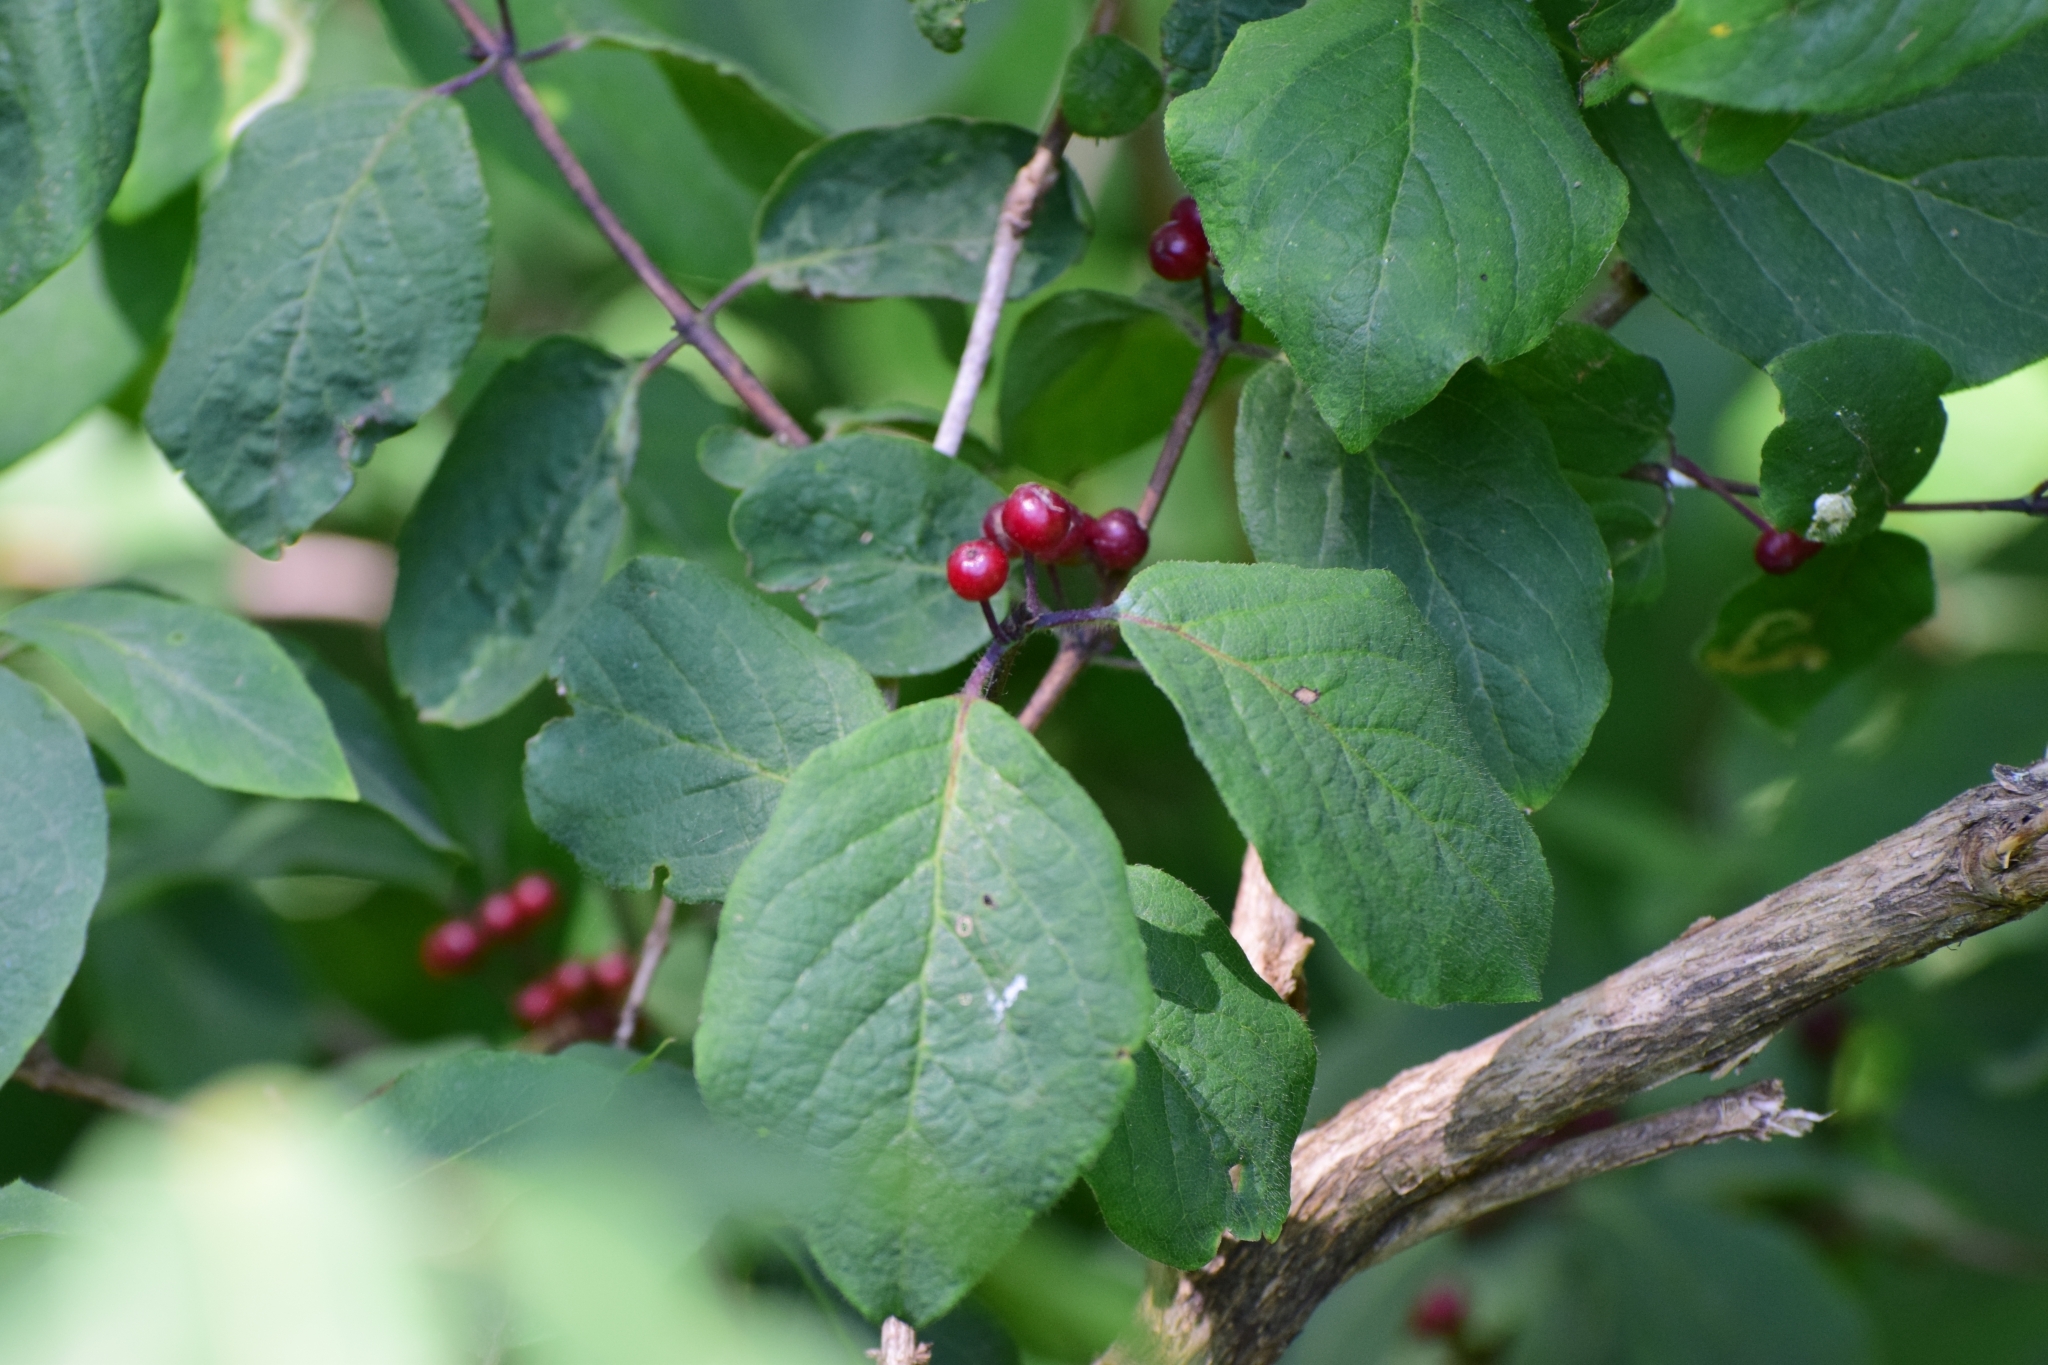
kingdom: Plantae
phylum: Tracheophyta
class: Magnoliopsida
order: Dipsacales
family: Caprifoliaceae
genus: Lonicera
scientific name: Lonicera xylosteum
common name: Fly honeysuckle
